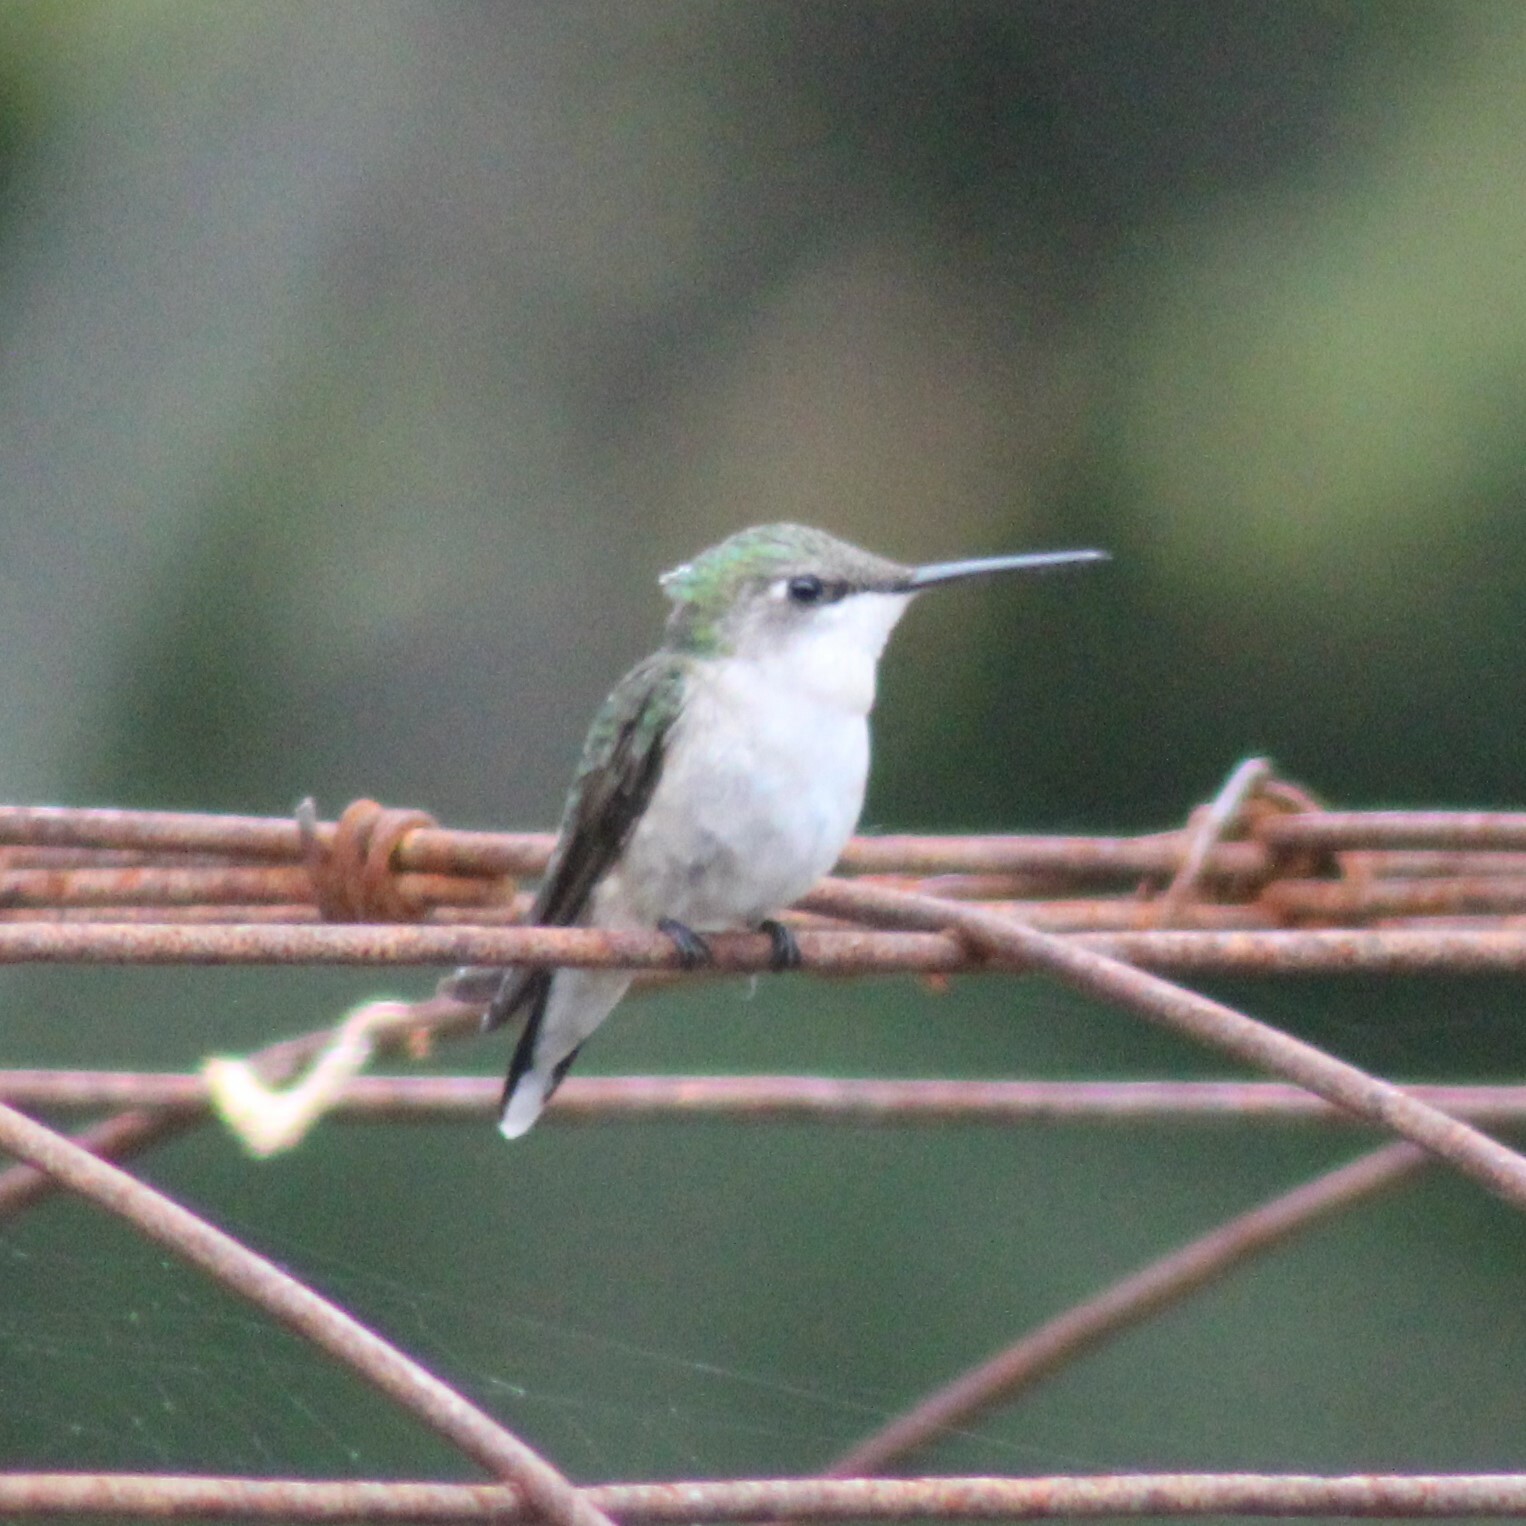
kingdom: Animalia
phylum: Chordata
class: Aves
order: Apodiformes
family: Trochilidae
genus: Archilochus
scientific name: Archilochus colubris
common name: Ruby-throated hummingbird
